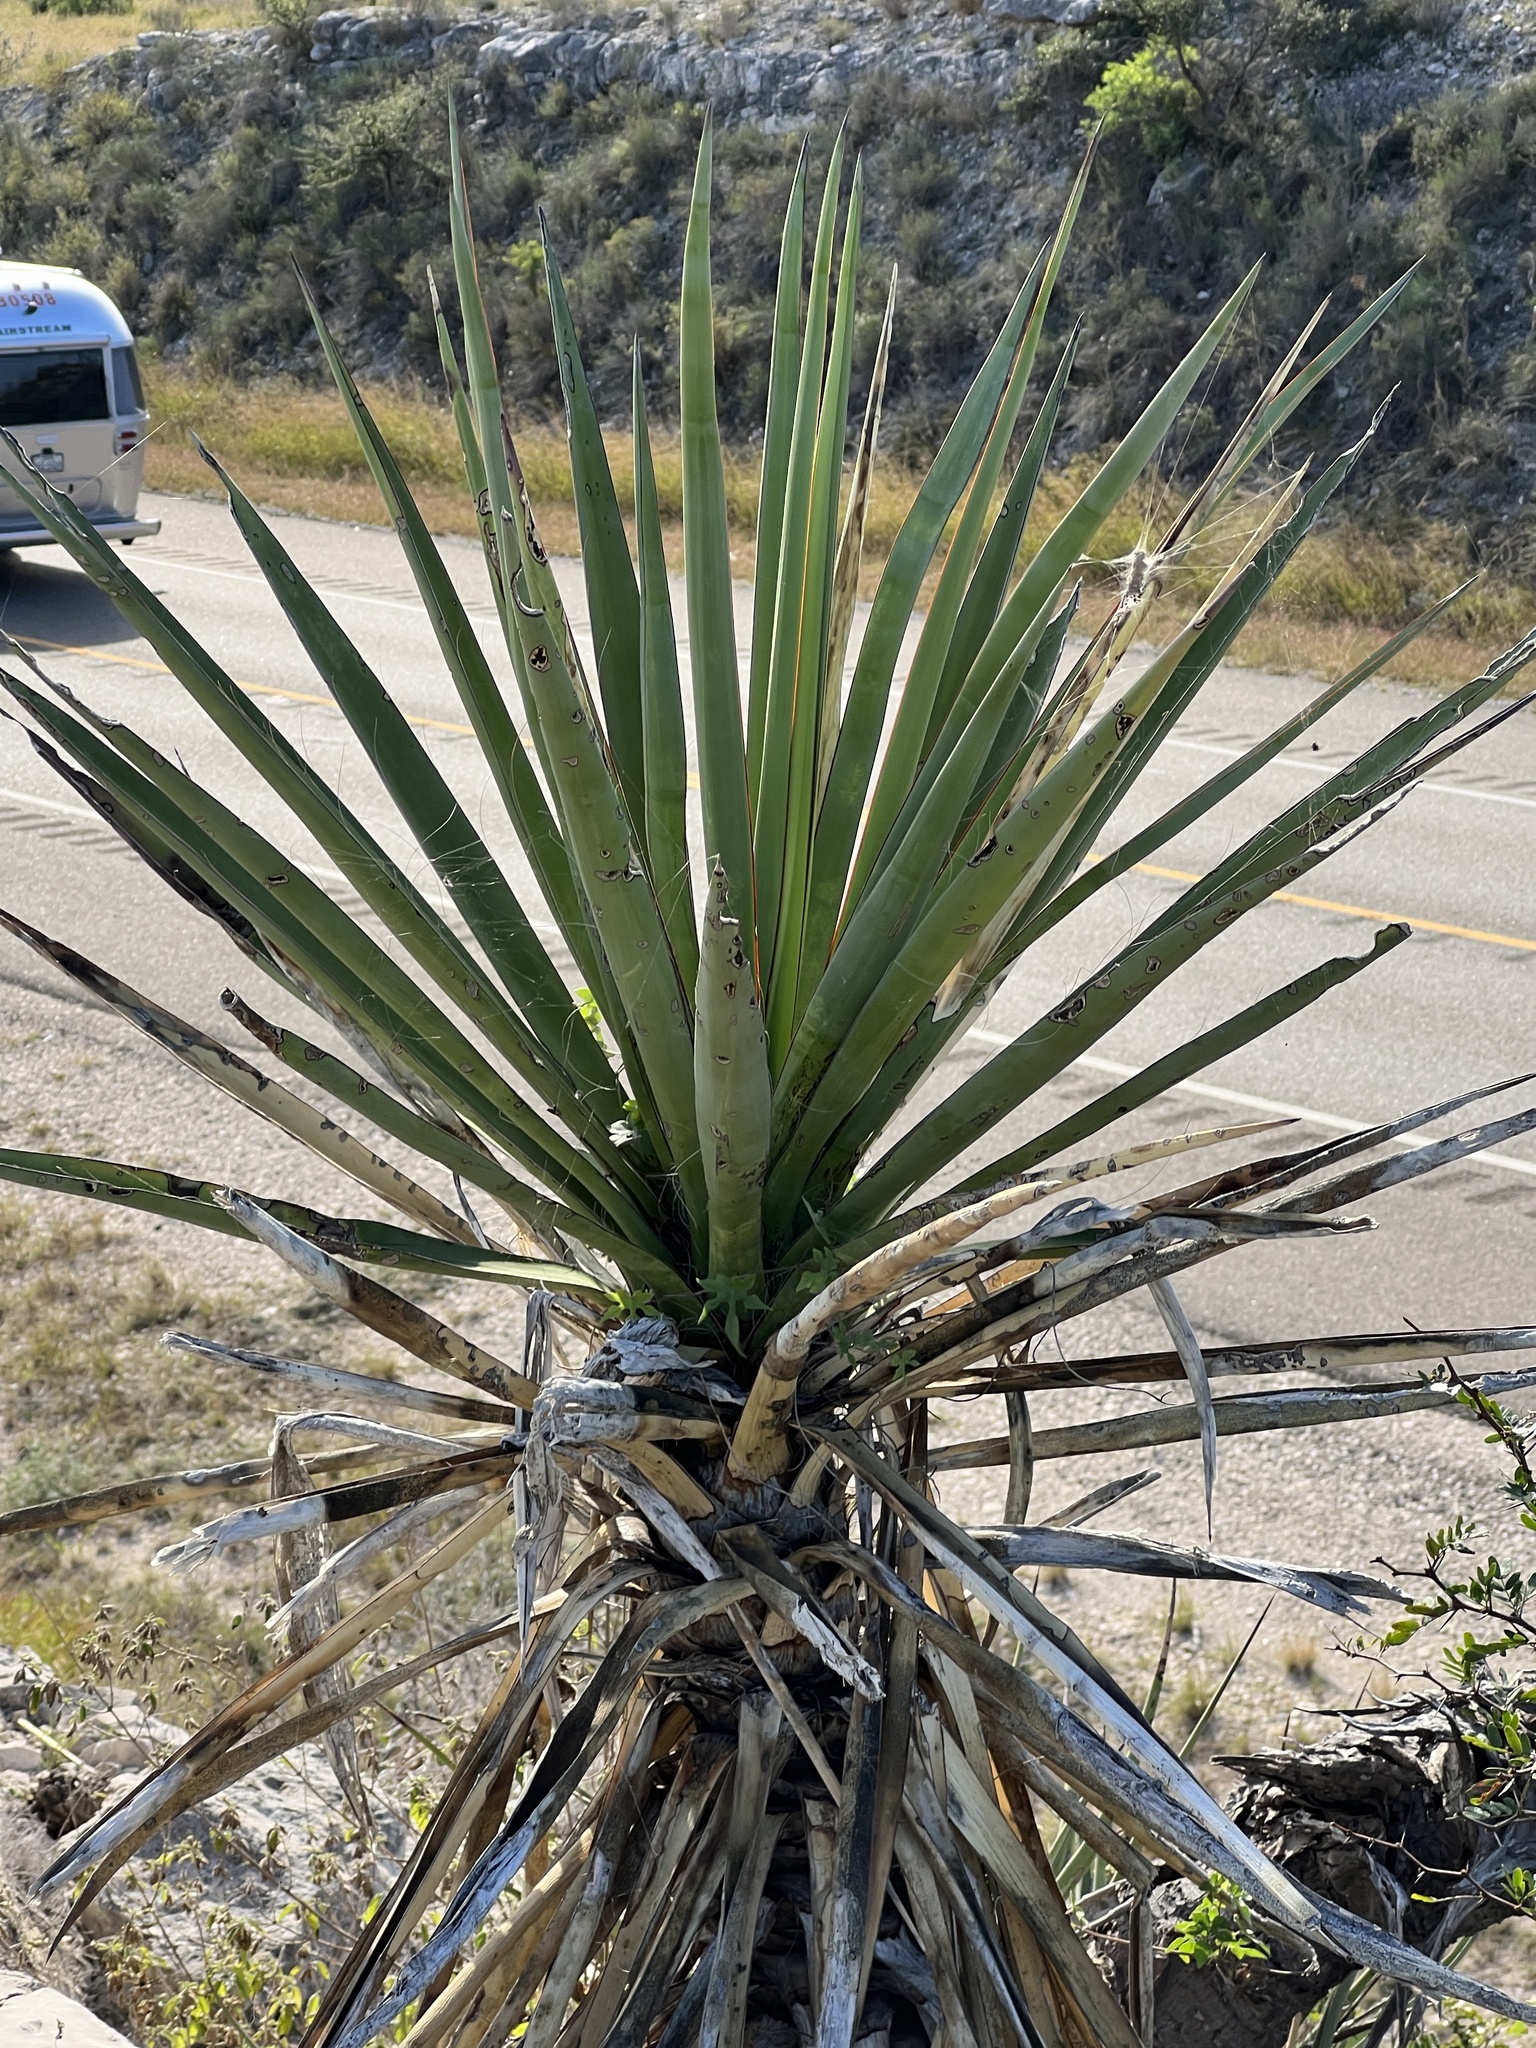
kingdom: Plantae
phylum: Tracheophyta
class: Liliopsida
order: Asparagales
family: Asparagaceae
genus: Yucca
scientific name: Yucca treculiana
